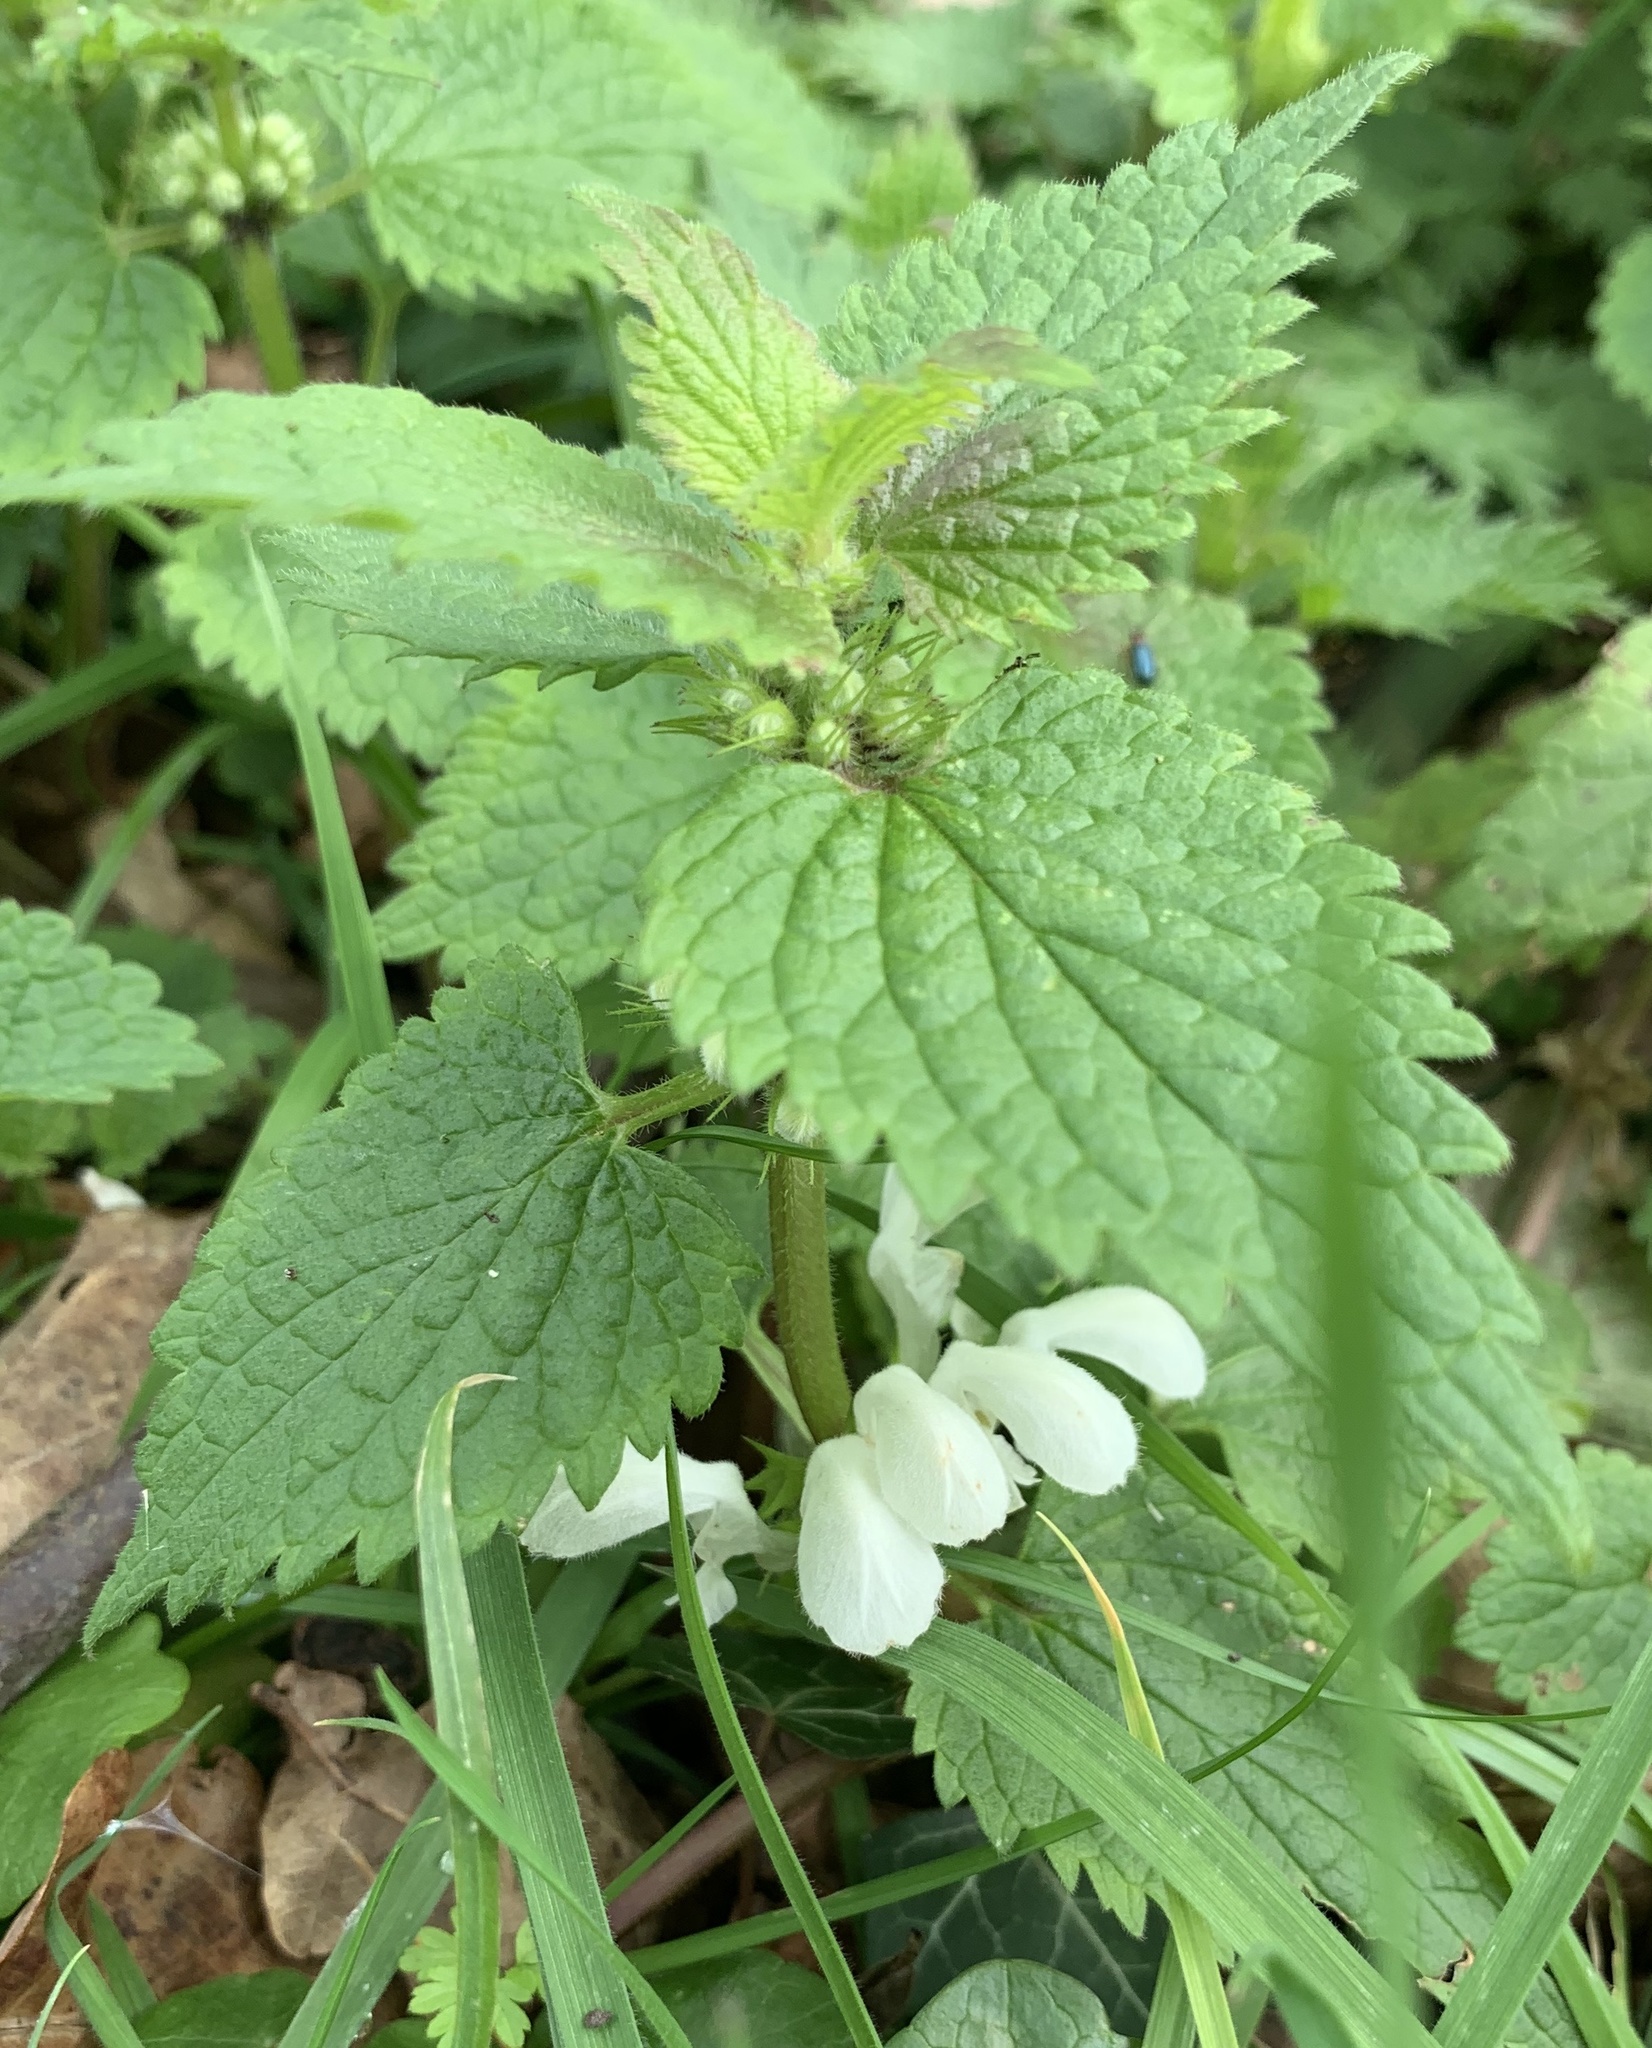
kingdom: Plantae
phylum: Tracheophyta
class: Magnoliopsida
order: Lamiales
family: Lamiaceae
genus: Lamium
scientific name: Lamium album
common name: White dead-nettle
